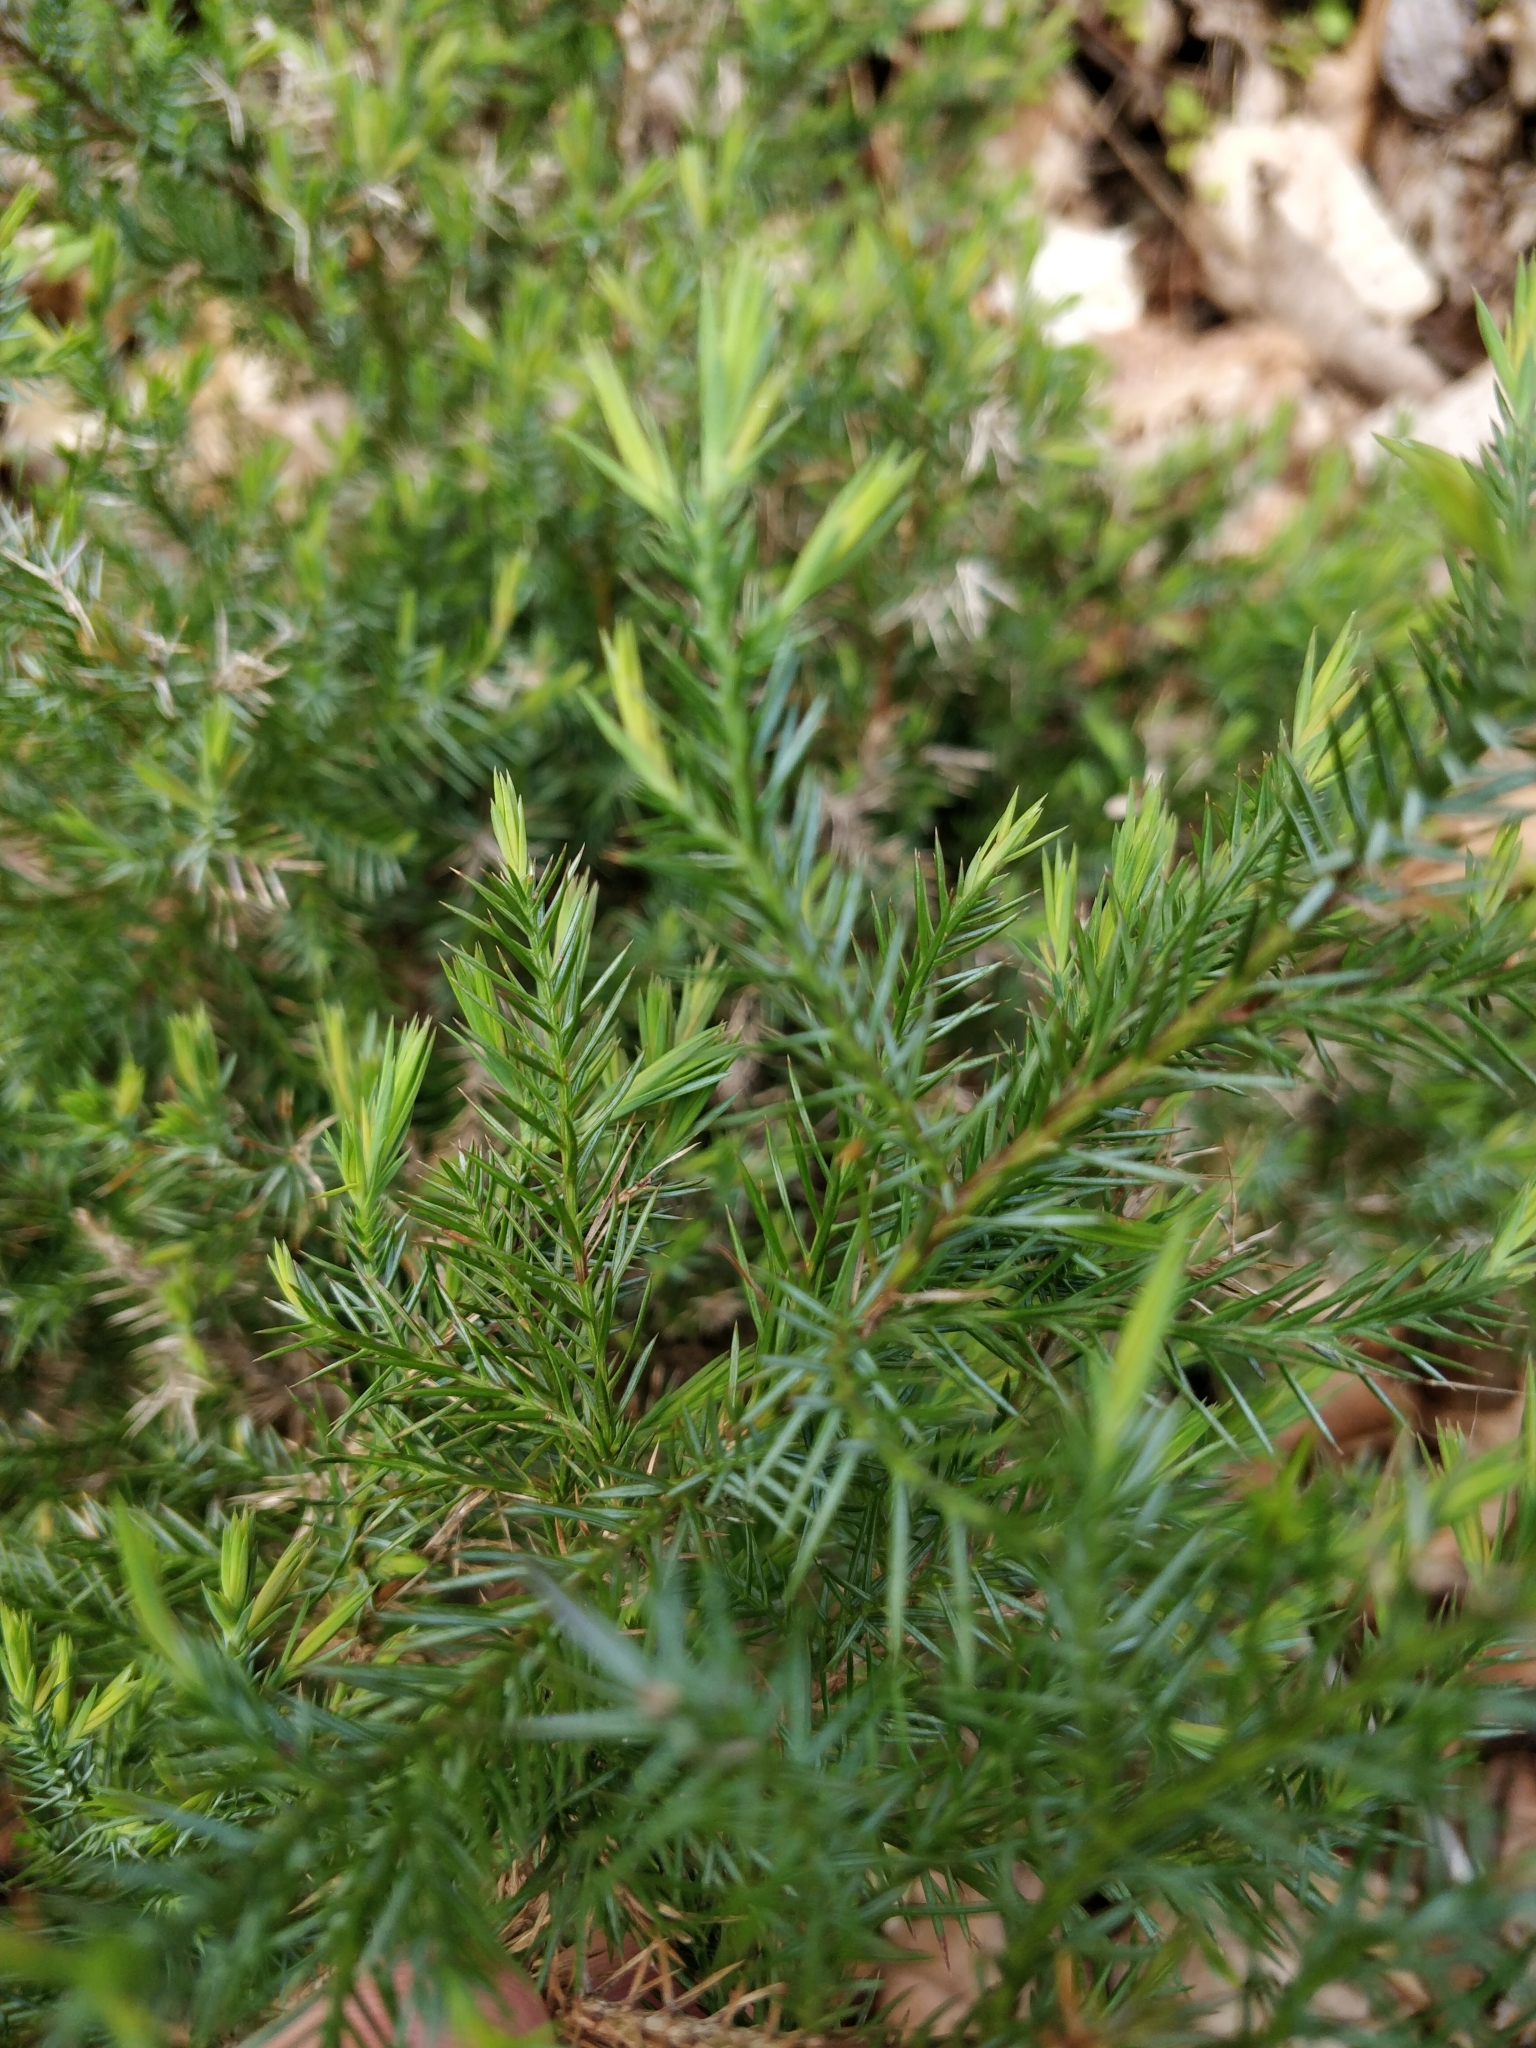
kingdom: Plantae
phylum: Tracheophyta
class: Pinopsida
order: Pinales
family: Cupressaceae
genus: Juniperus
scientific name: Juniperus virginiana
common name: Red juniper
